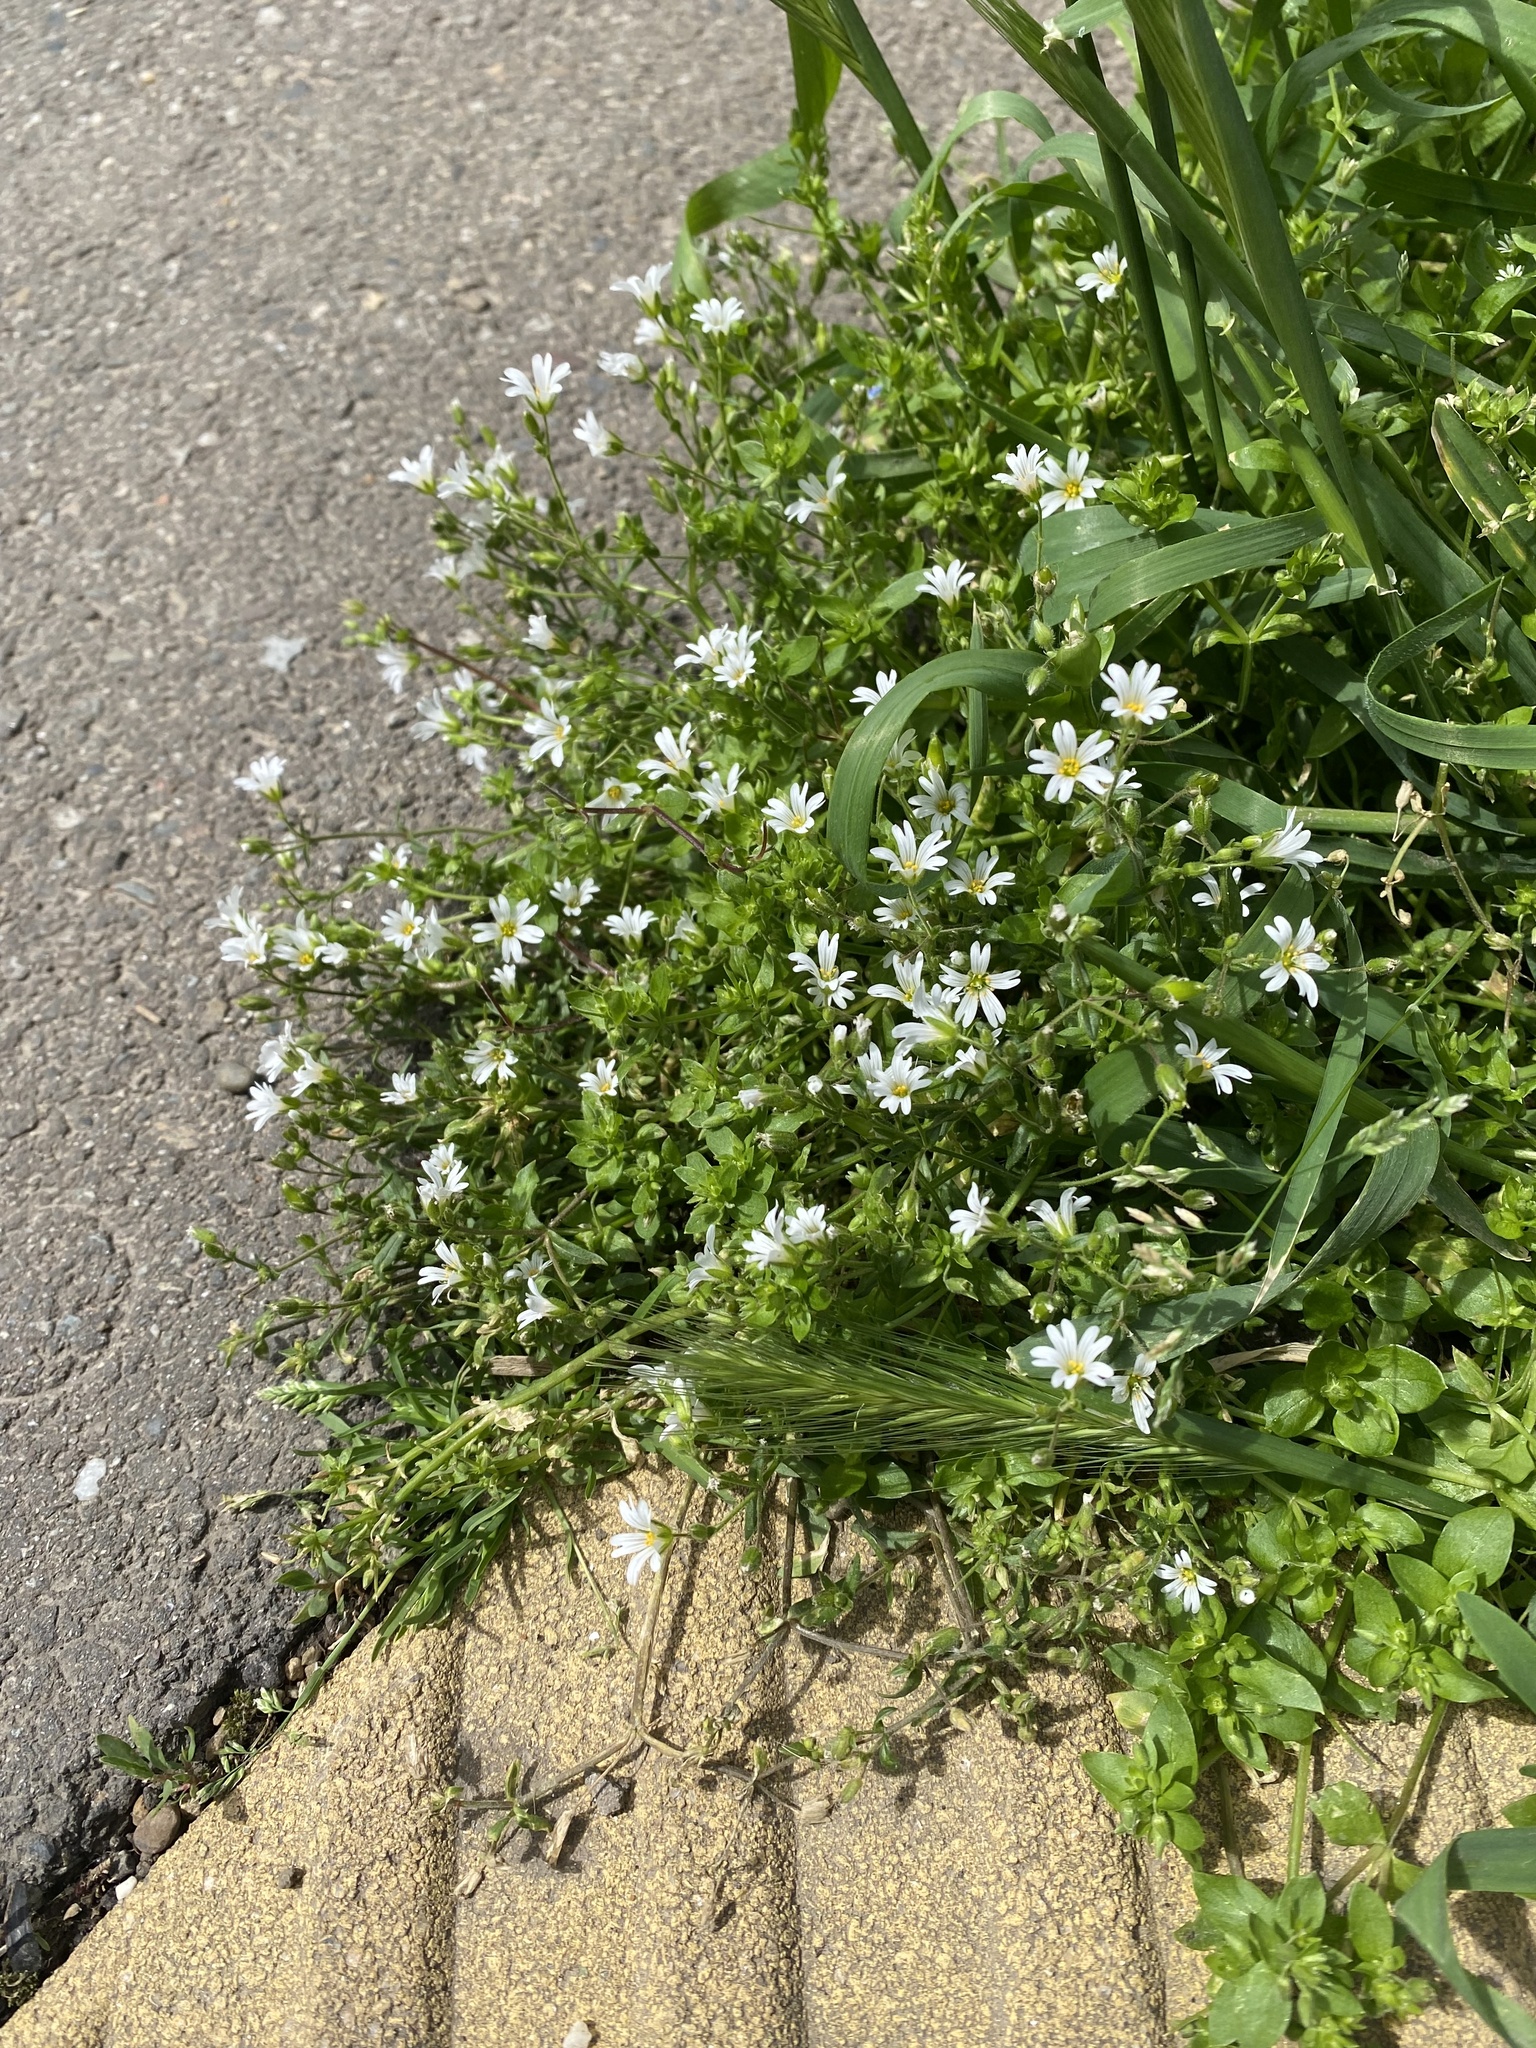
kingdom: Plantae
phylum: Tracheophyta
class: Magnoliopsida
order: Caryophyllales
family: Caryophyllaceae
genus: Dichodon
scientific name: Dichodon viscidum
